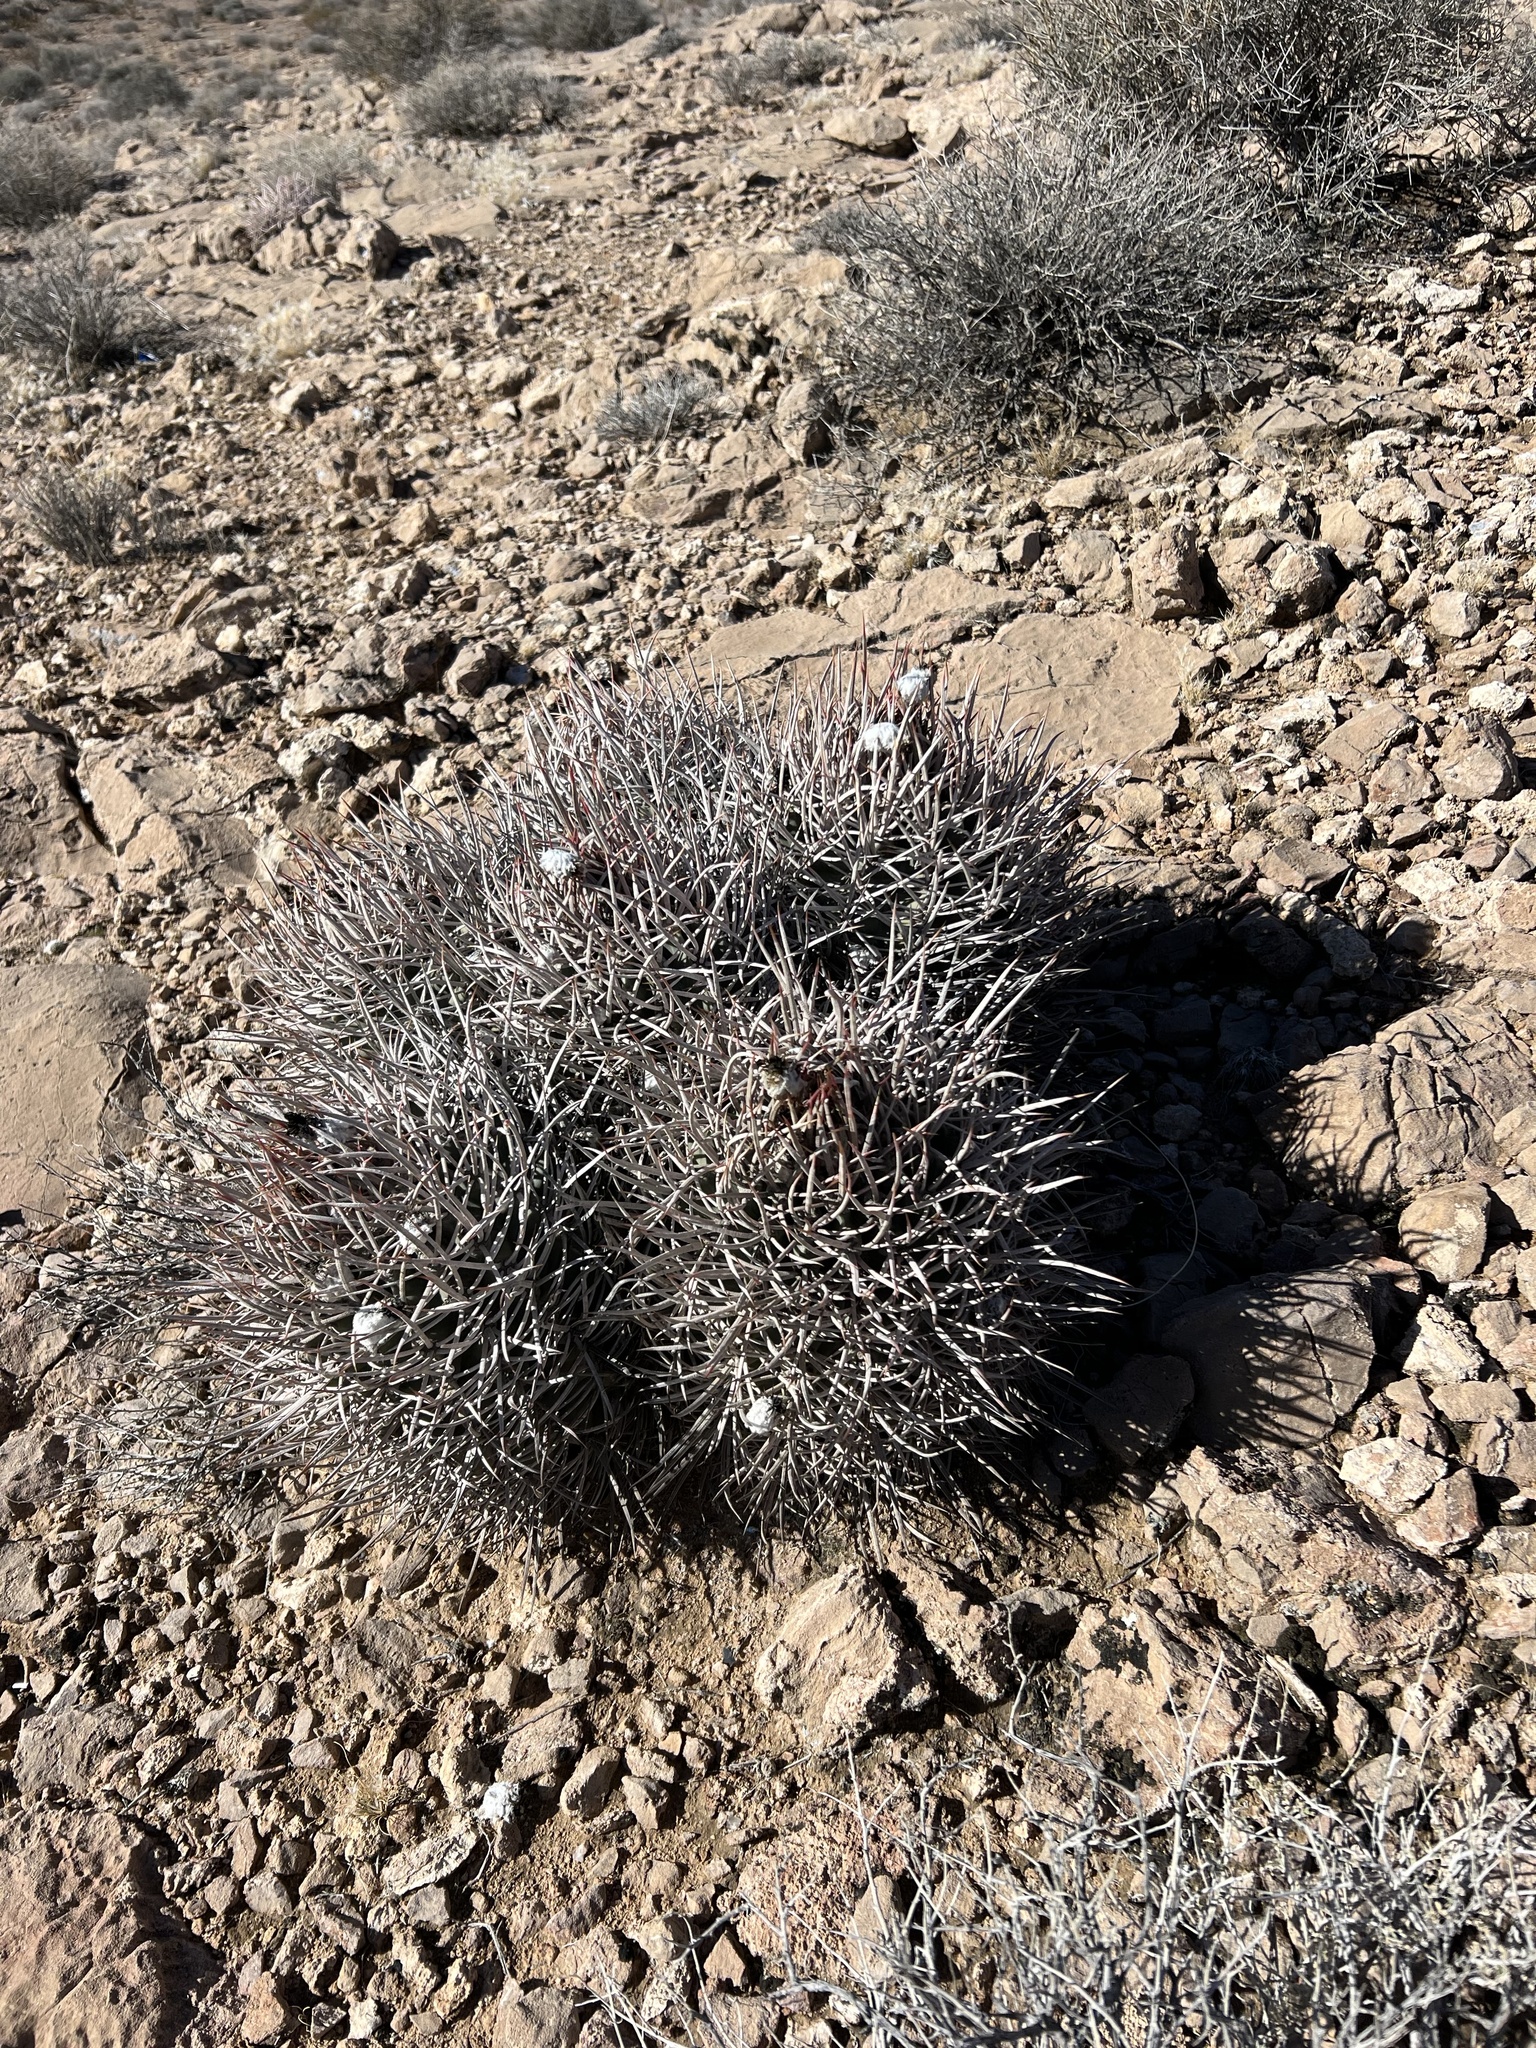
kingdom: Plantae
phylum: Tracheophyta
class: Magnoliopsida
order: Caryophyllales
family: Cactaceae
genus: Echinocactus
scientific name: Echinocactus polycephalus
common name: Cottontop cactus
